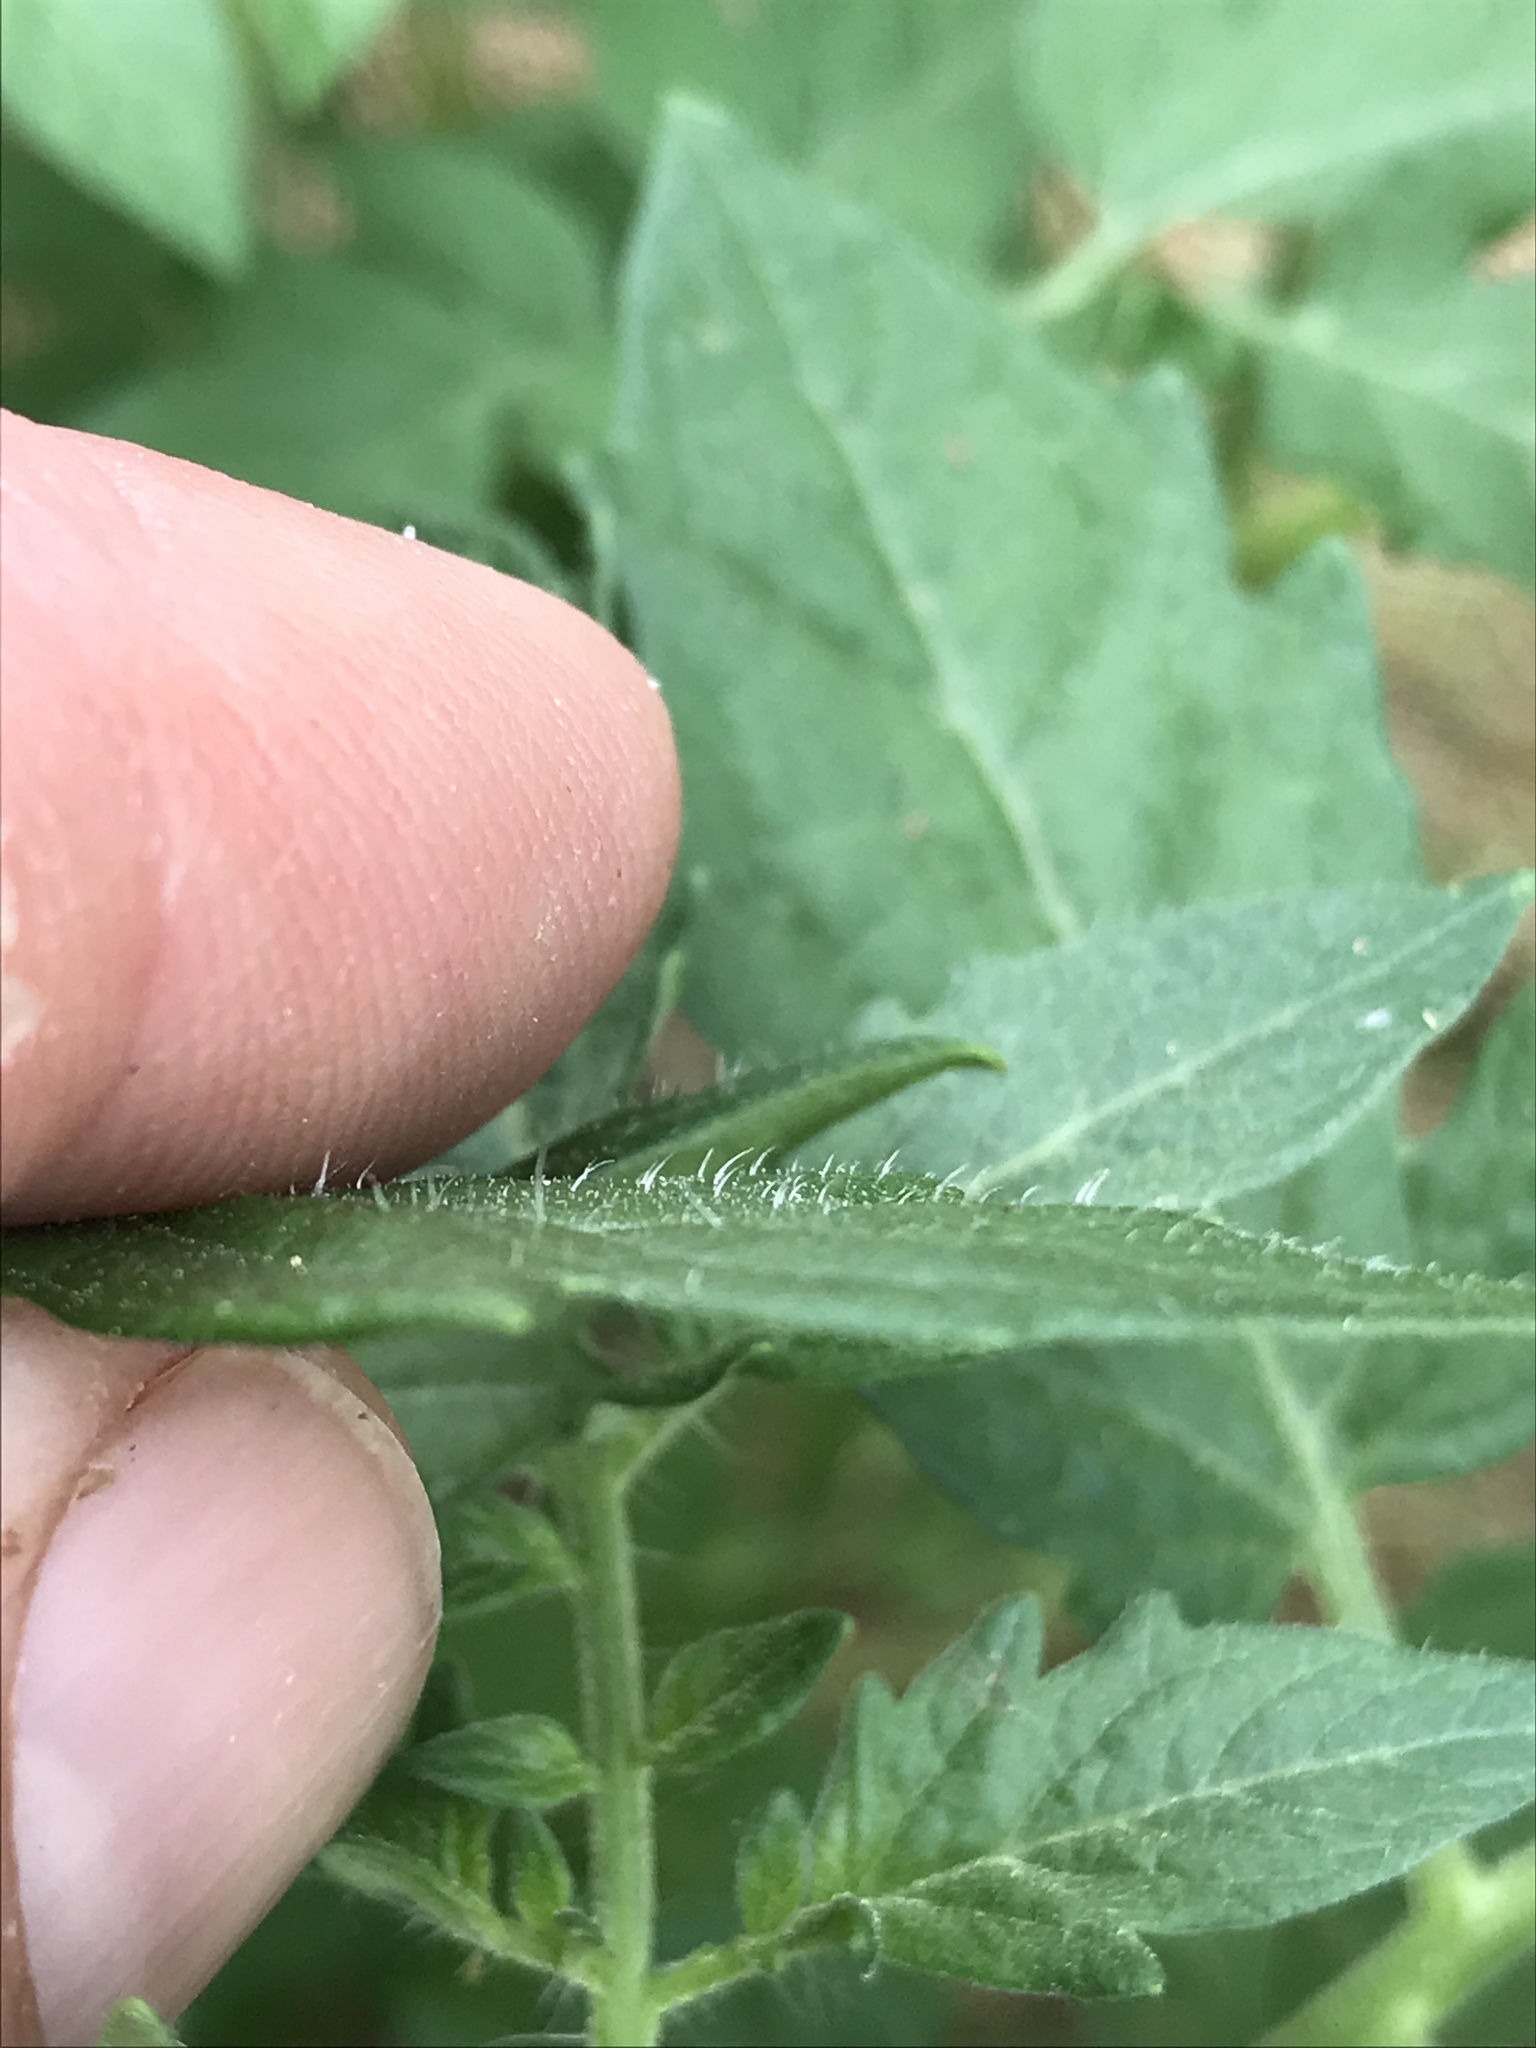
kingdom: Plantae
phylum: Tracheophyta
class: Magnoliopsida
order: Solanales
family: Solanaceae
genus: Solanum
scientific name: Solanum lycopersicum
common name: Garden tomato
